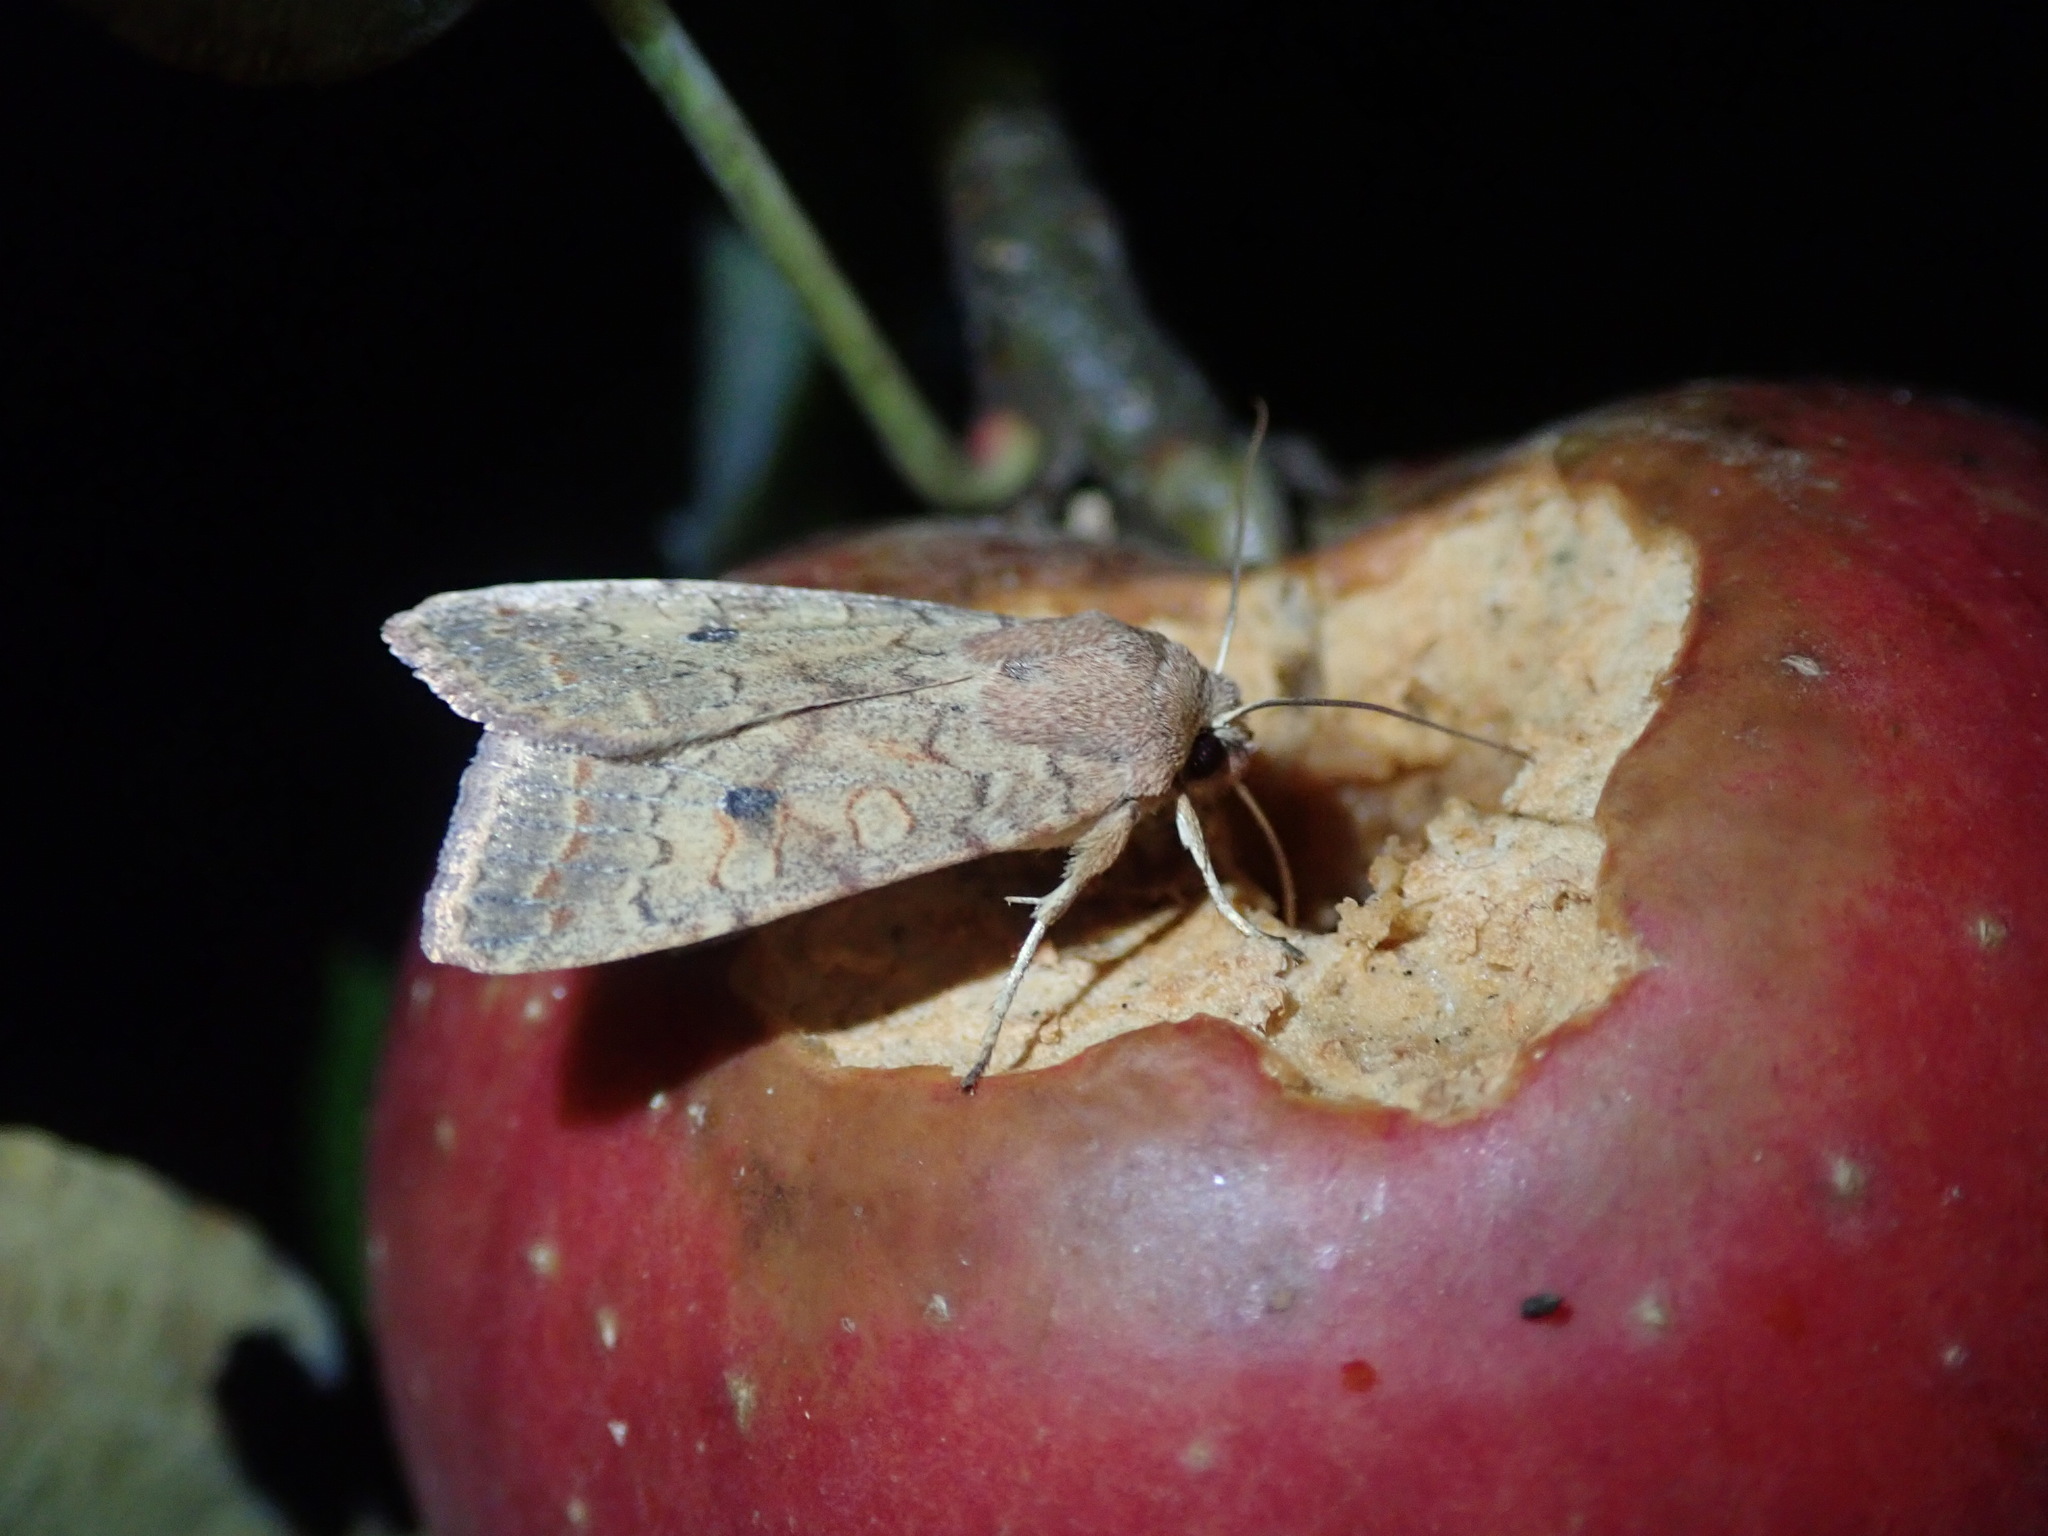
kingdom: Animalia
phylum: Arthropoda
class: Insecta
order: Lepidoptera
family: Noctuidae
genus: Sunira
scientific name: Sunira circellaris
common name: Brick
